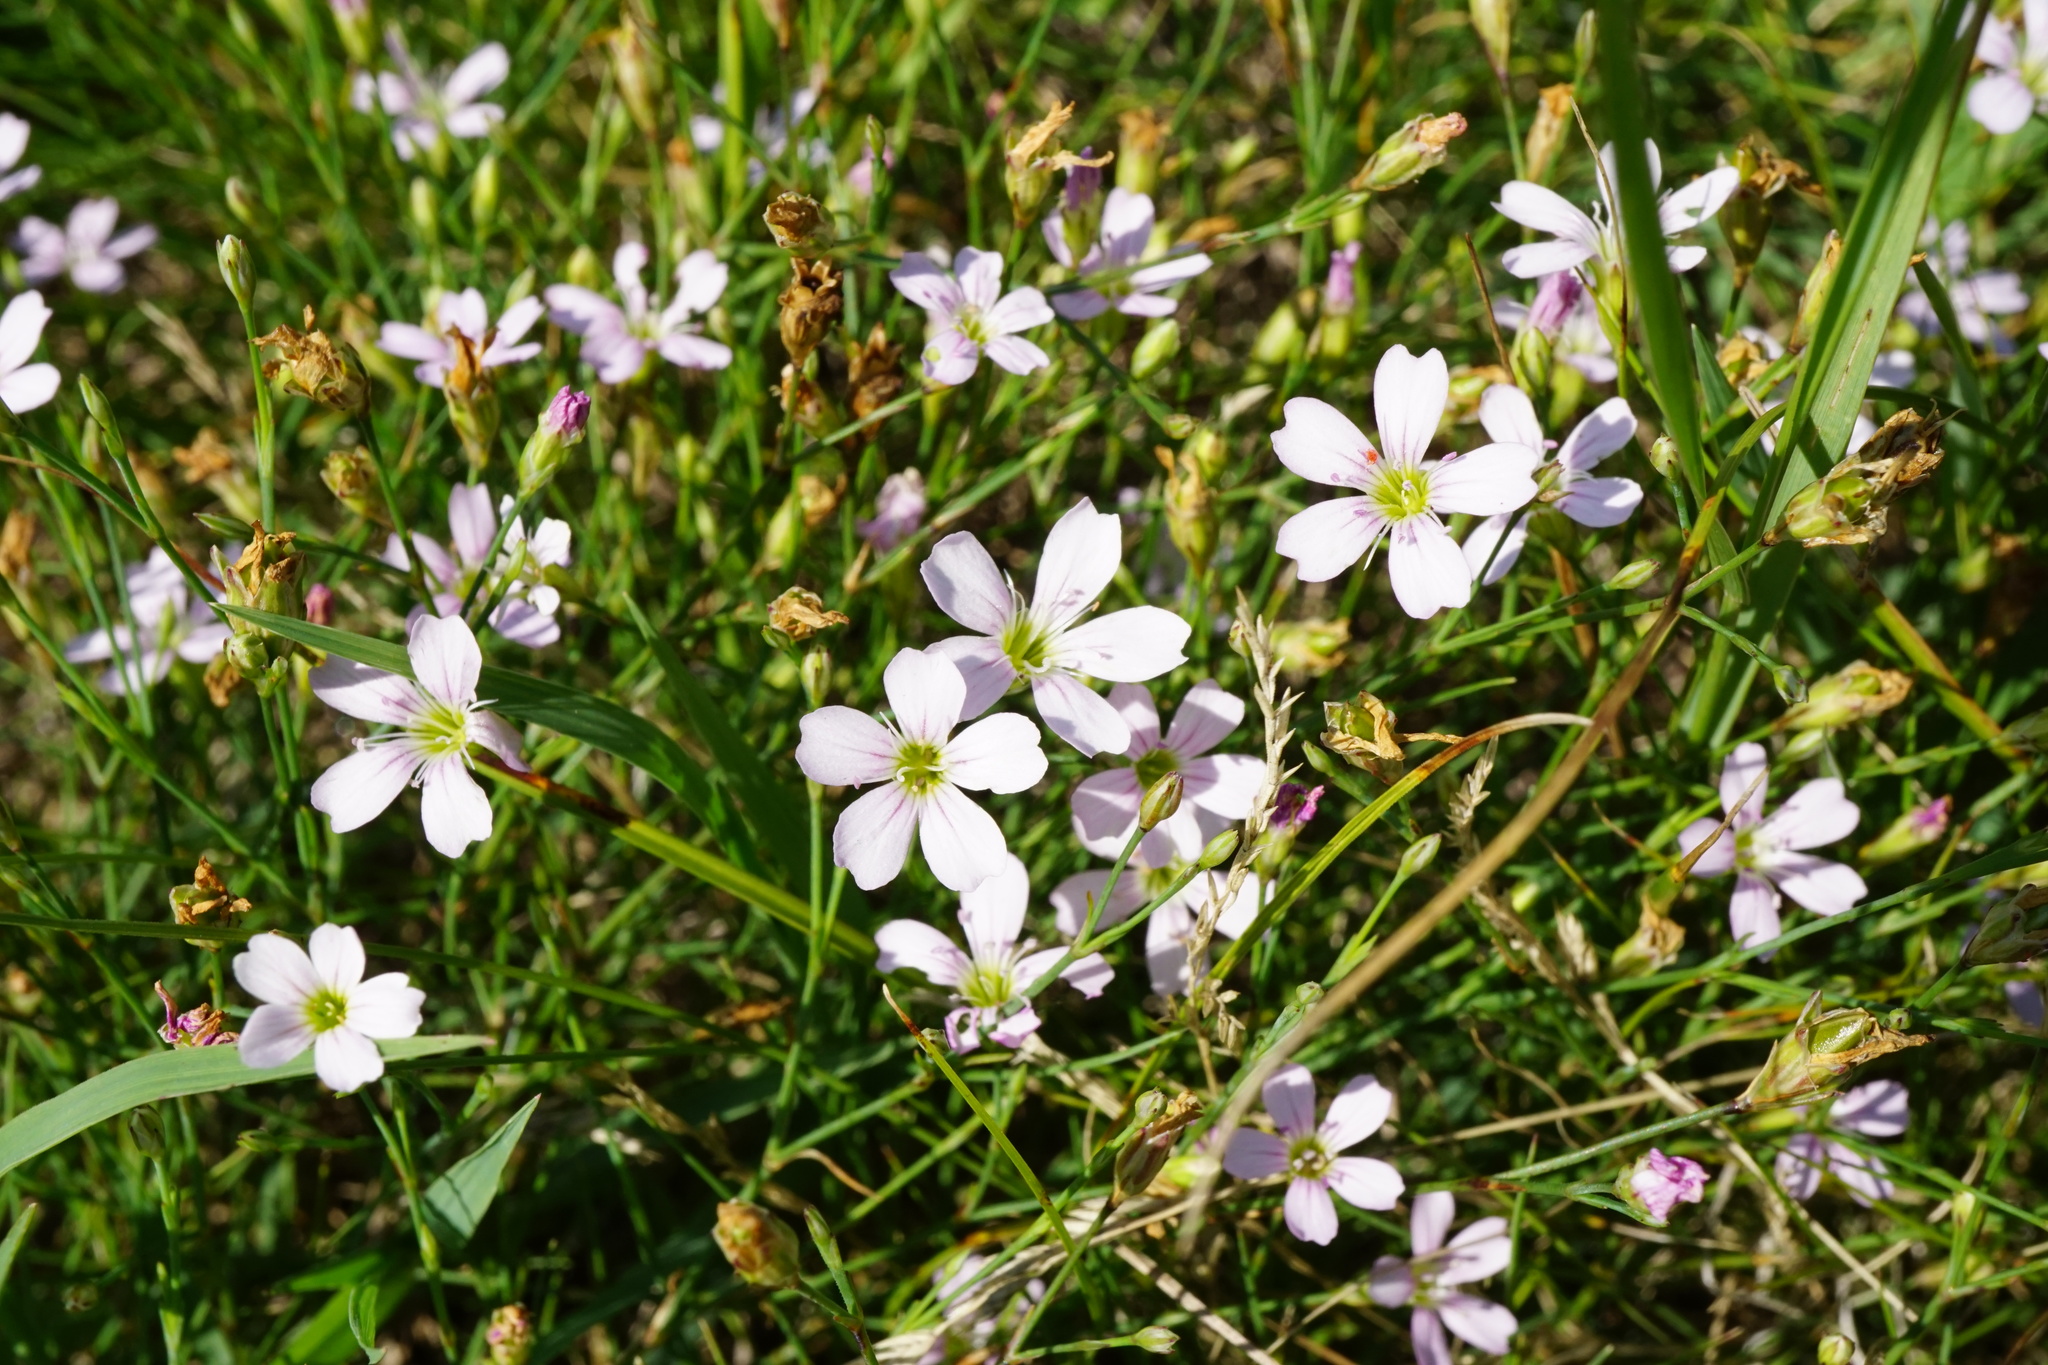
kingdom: Plantae
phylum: Tracheophyta
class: Magnoliopsida
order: Caryophyllales
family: Caryophyllaceae
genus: Petrorhagia
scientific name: Petrorhagia saxifraga
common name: Tunicflower
